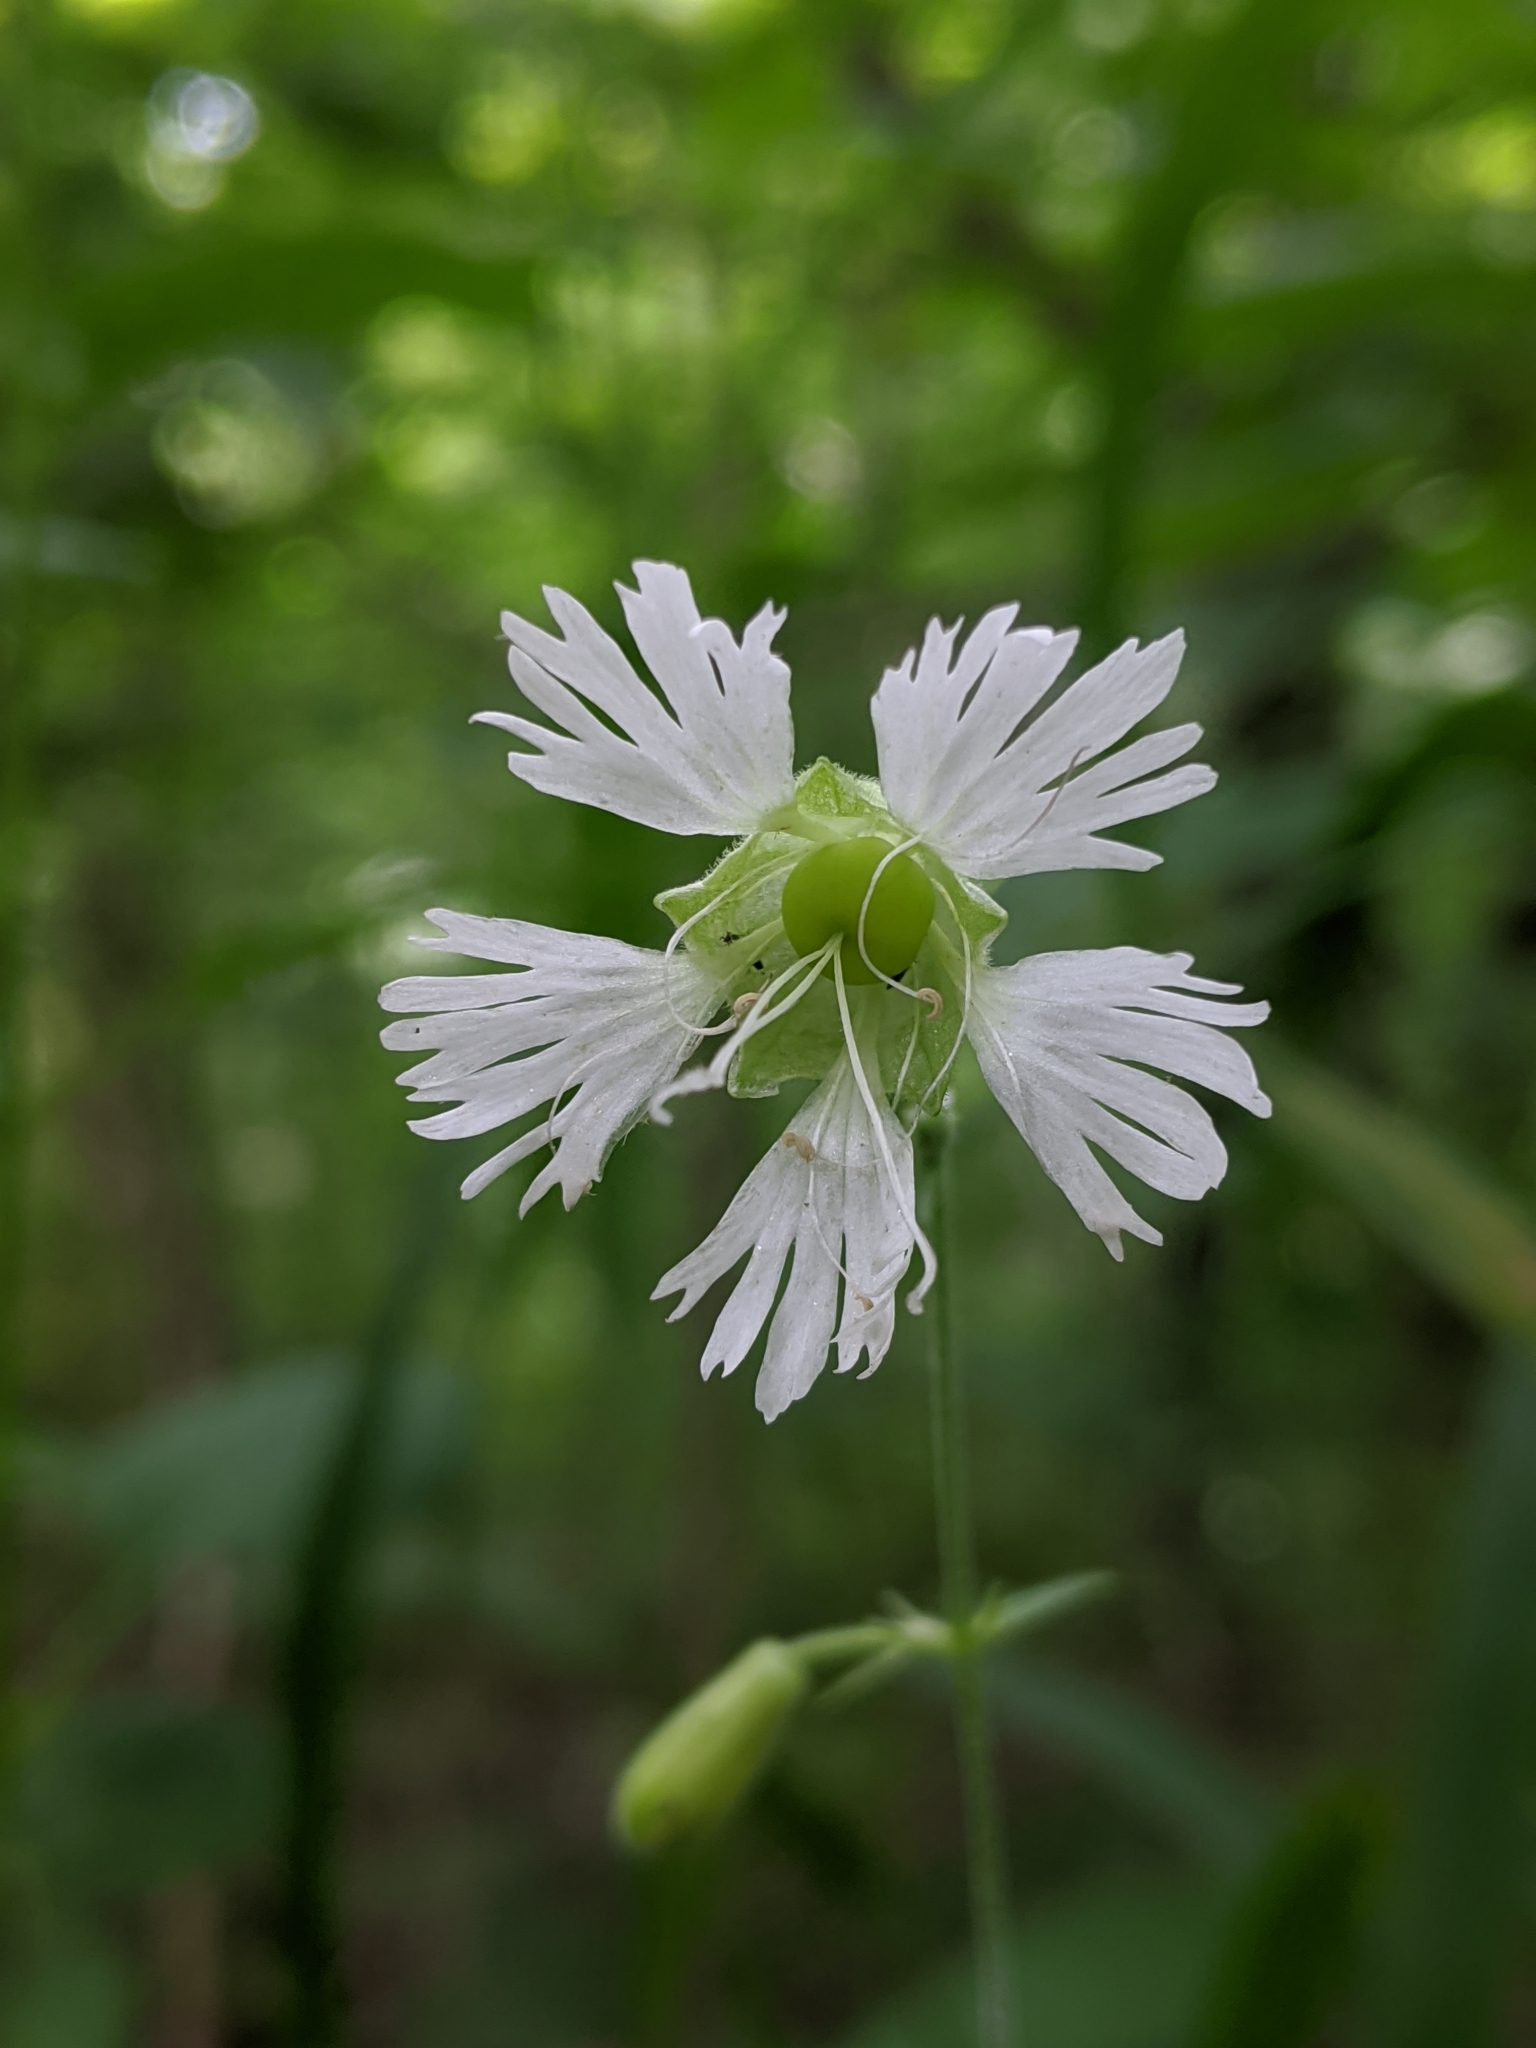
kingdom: Plantae
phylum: Tracheophyta
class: Magnoliopsida
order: Caryophyllales
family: Caryophyllaceae
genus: Silene
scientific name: Silene stellata
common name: Starry campion
